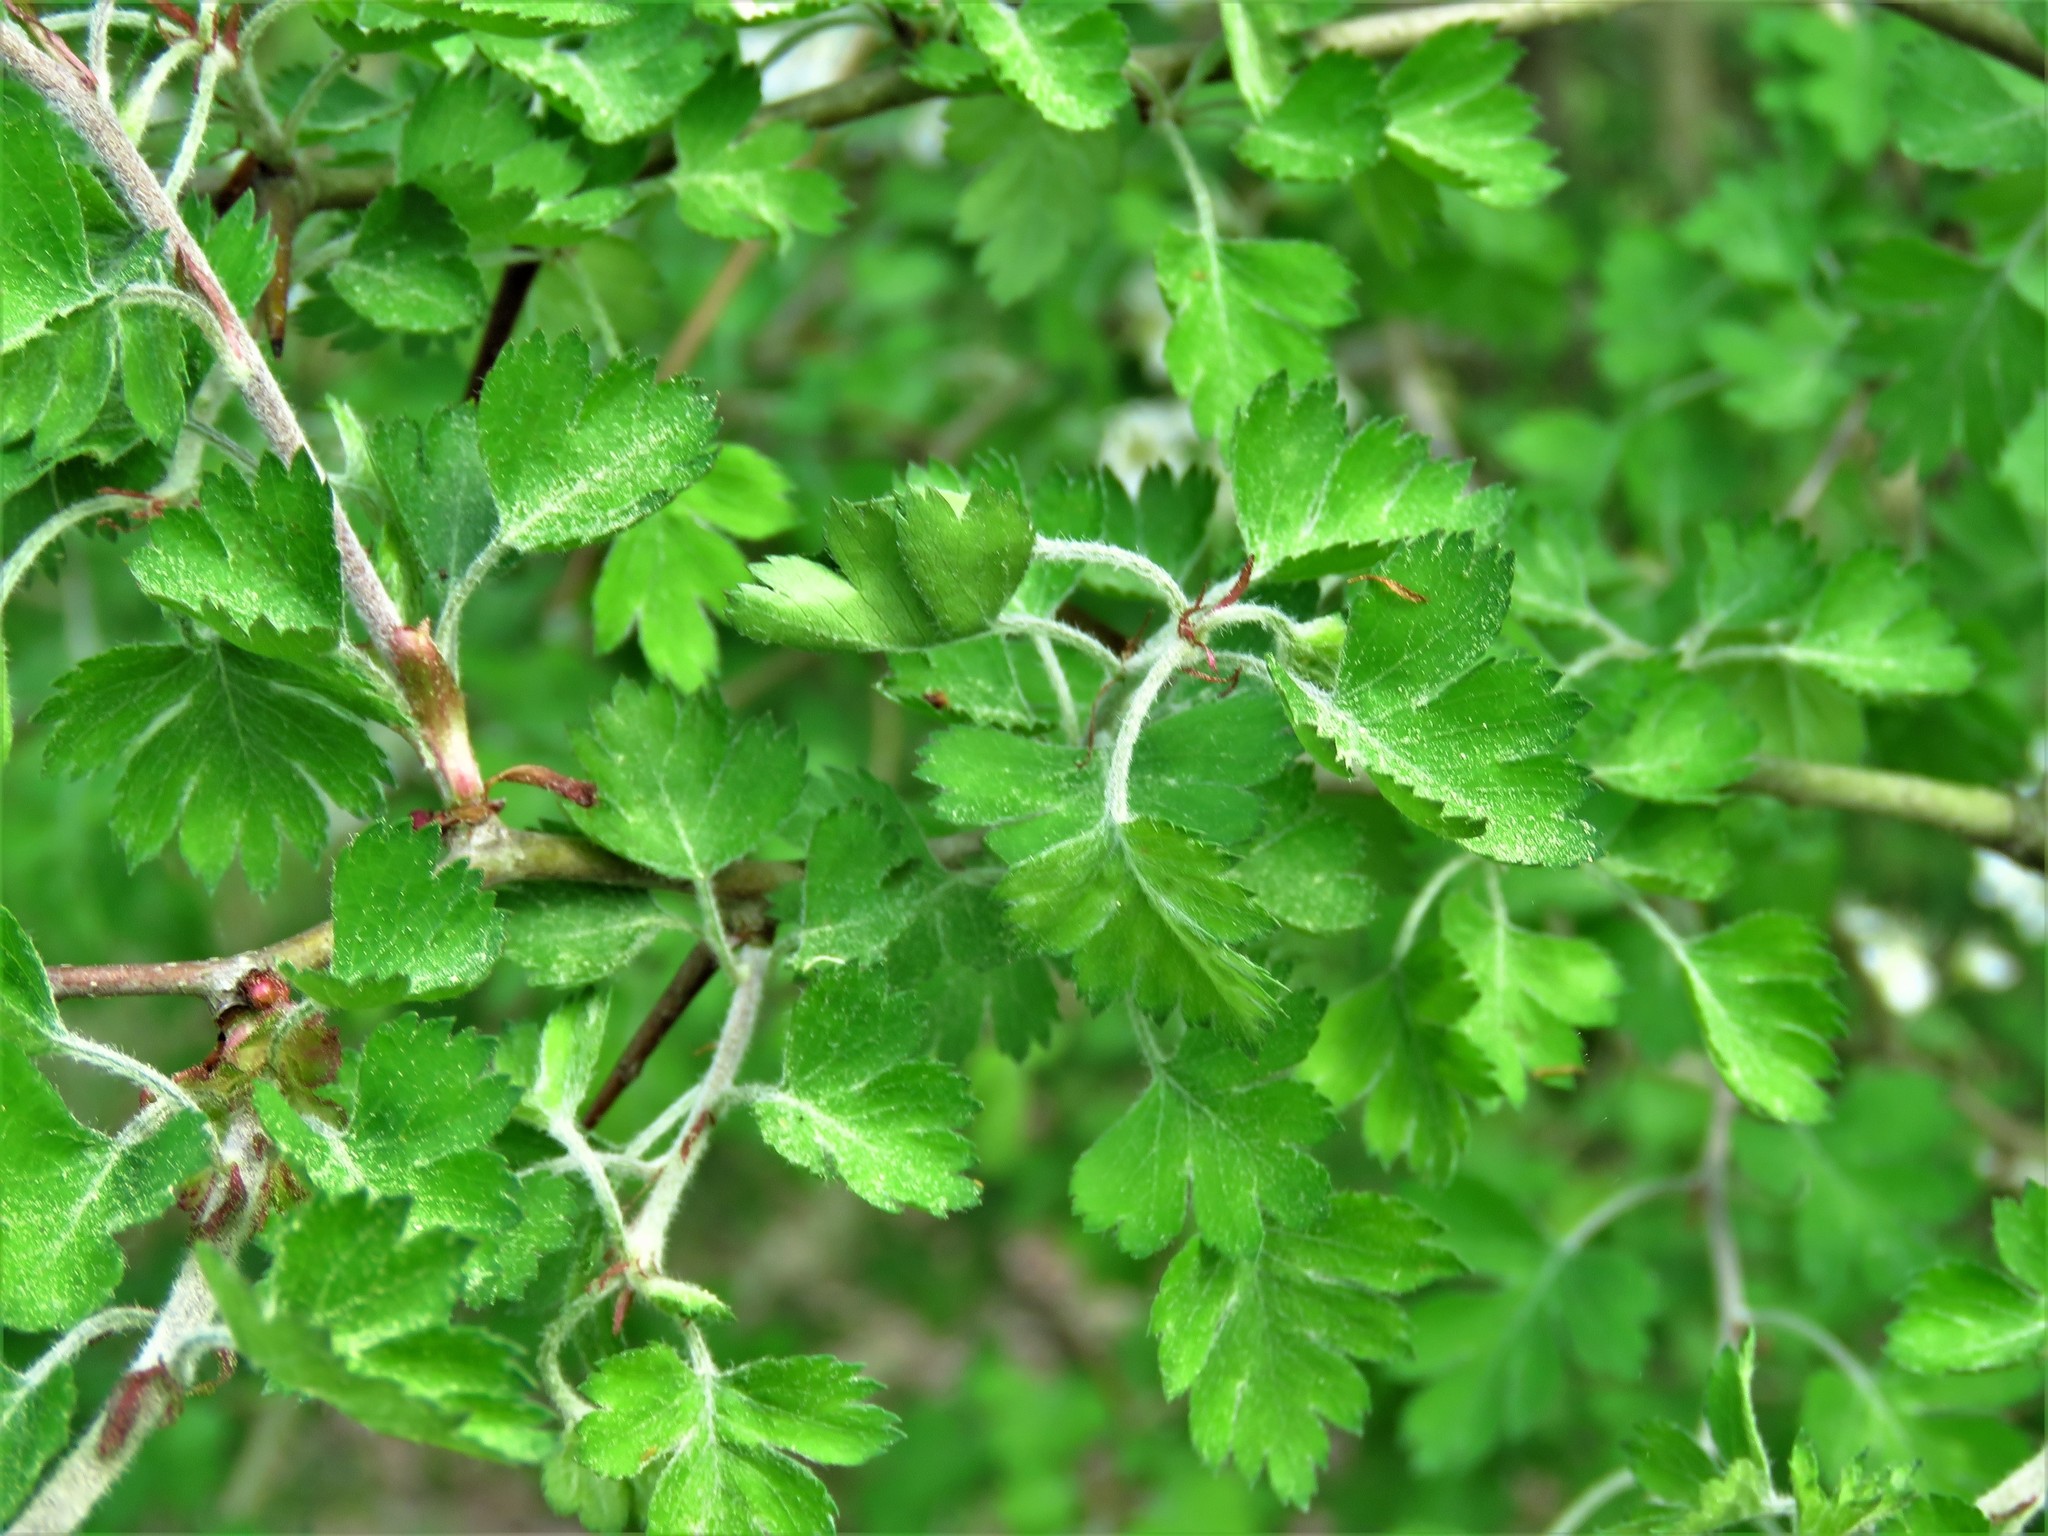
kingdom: Plantae
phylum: Tracheophyta
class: Magnoliopsida
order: Rosales
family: Rosaceae
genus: Crataegus
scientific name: Crataegus marshallii
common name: Parsley-hawthorn
